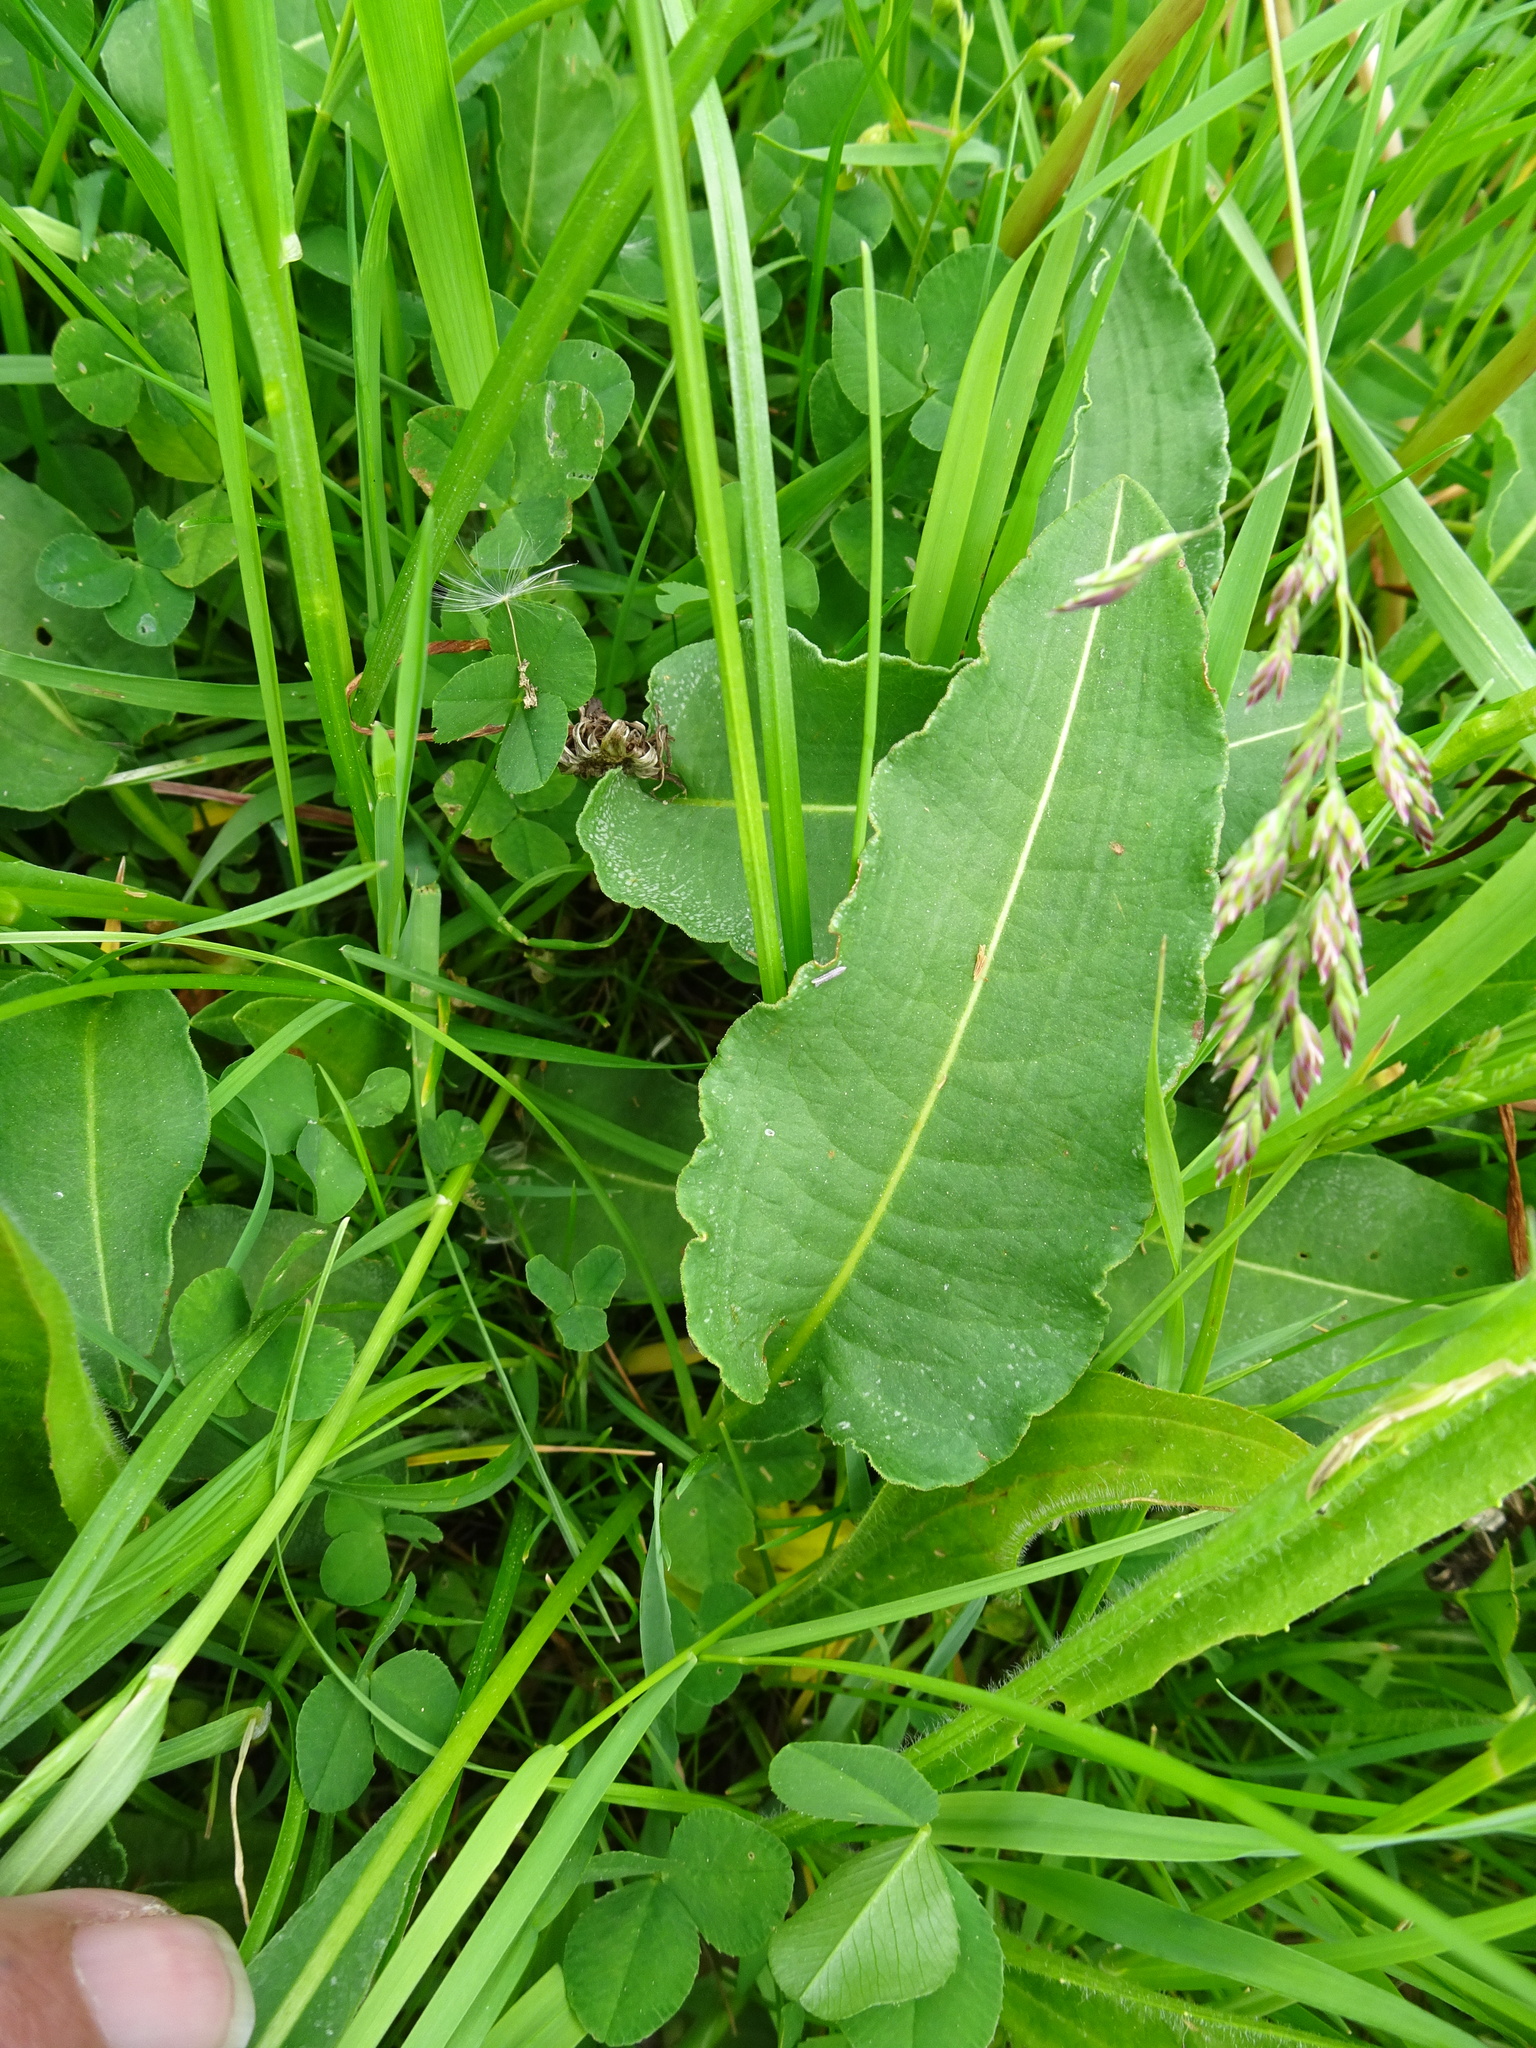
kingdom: Plantae
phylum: Tracheophyta
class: Magnoliopsida
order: Caryophyllales
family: Polygonaceae
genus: Bistorta
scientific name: Bistorta officinalis
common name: Common bistort
